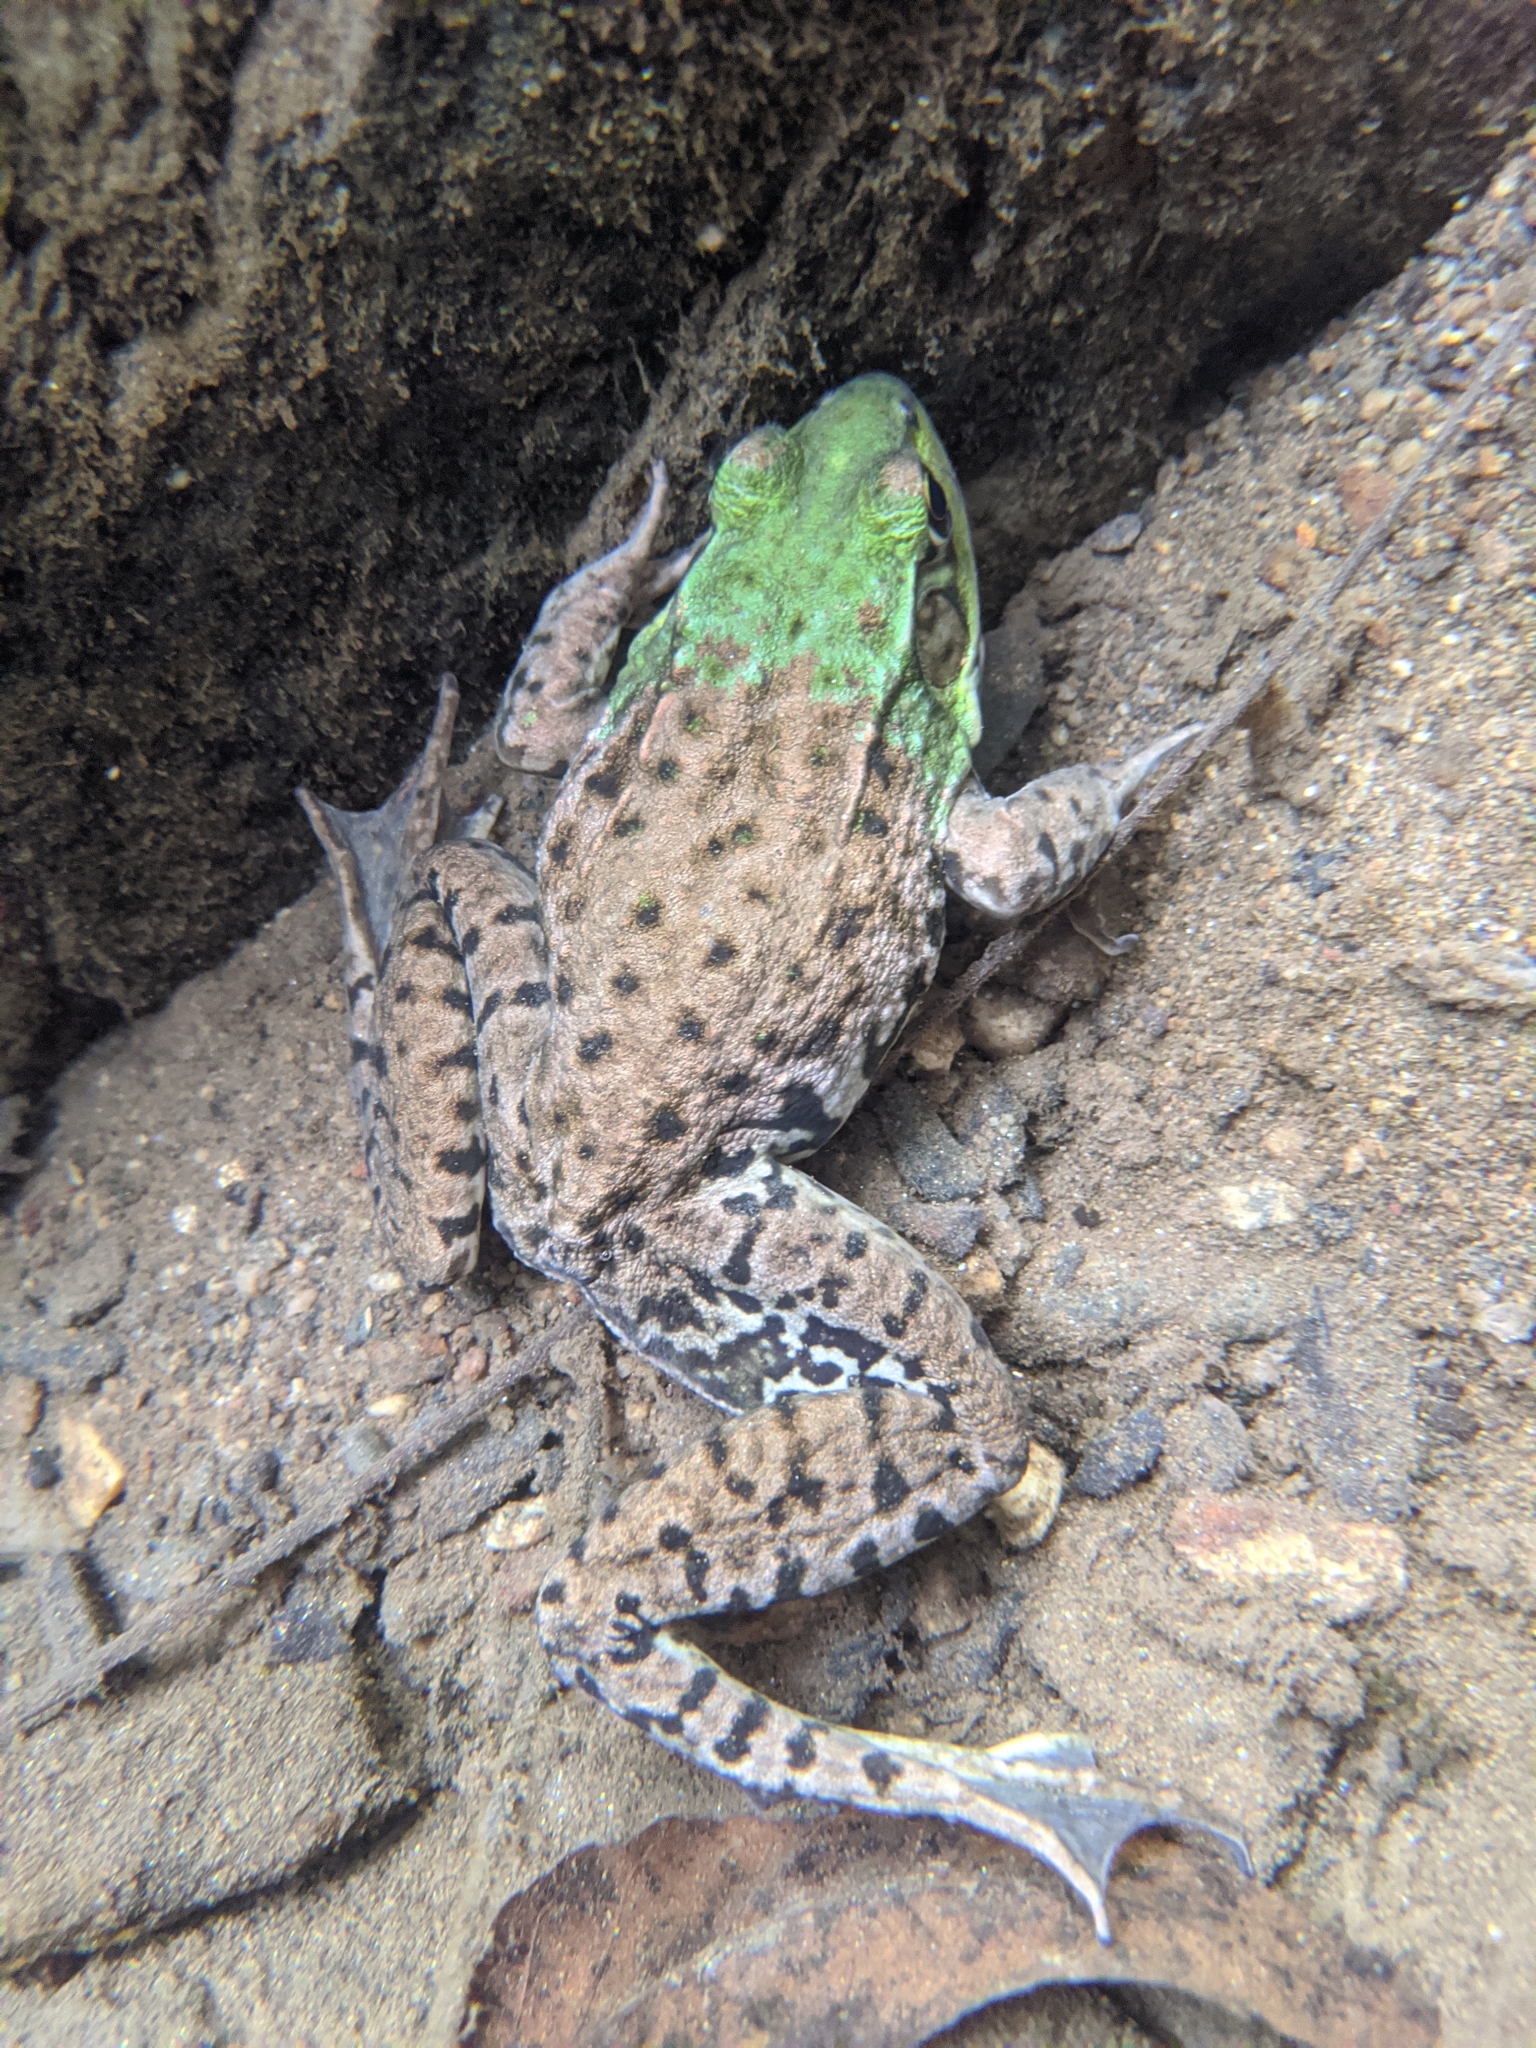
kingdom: Animalia
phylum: Chordata
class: Amphibia
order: Anura
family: Ranidae
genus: Lithobates
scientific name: Lithobates clamitans
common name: Green frog
